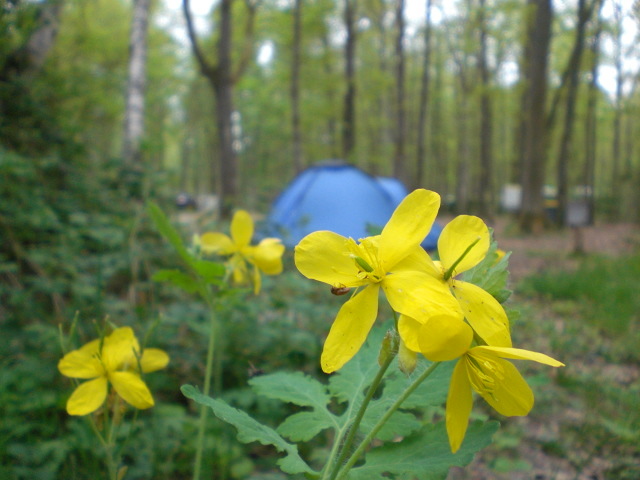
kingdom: Plantae
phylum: Tracheophyta
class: Magnoliopsida
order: Ranunculales
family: Papaveraceae
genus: Chelidonium
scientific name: Chelidonium majus
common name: Greater celandine
